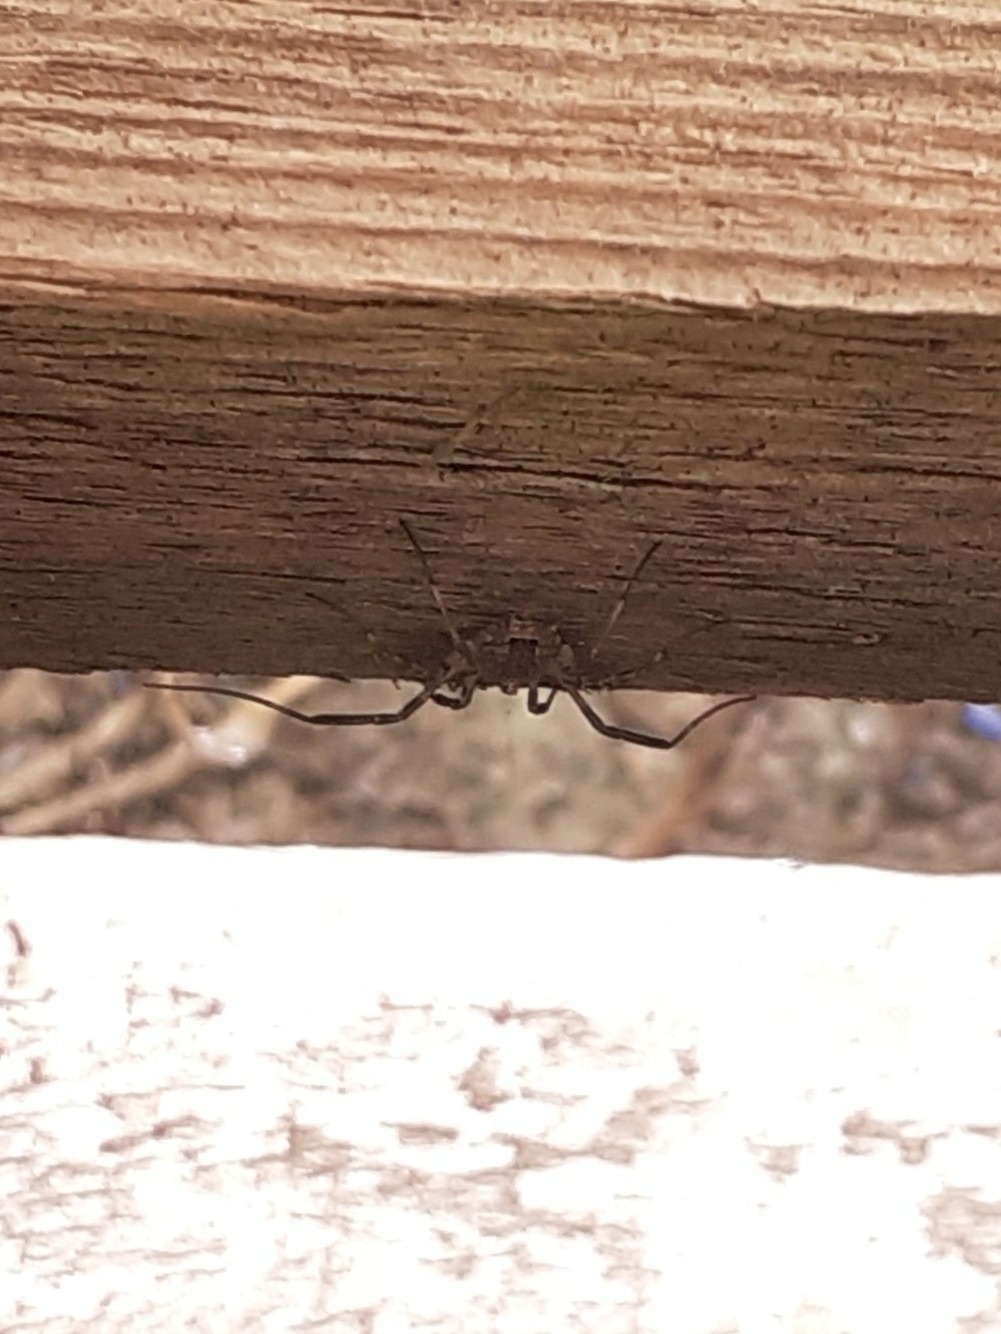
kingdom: Animalia
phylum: Arthropoda
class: Arachnida
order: Opiliones
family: Phalangiidae
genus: Odiellus
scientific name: Odiellus spinosus
